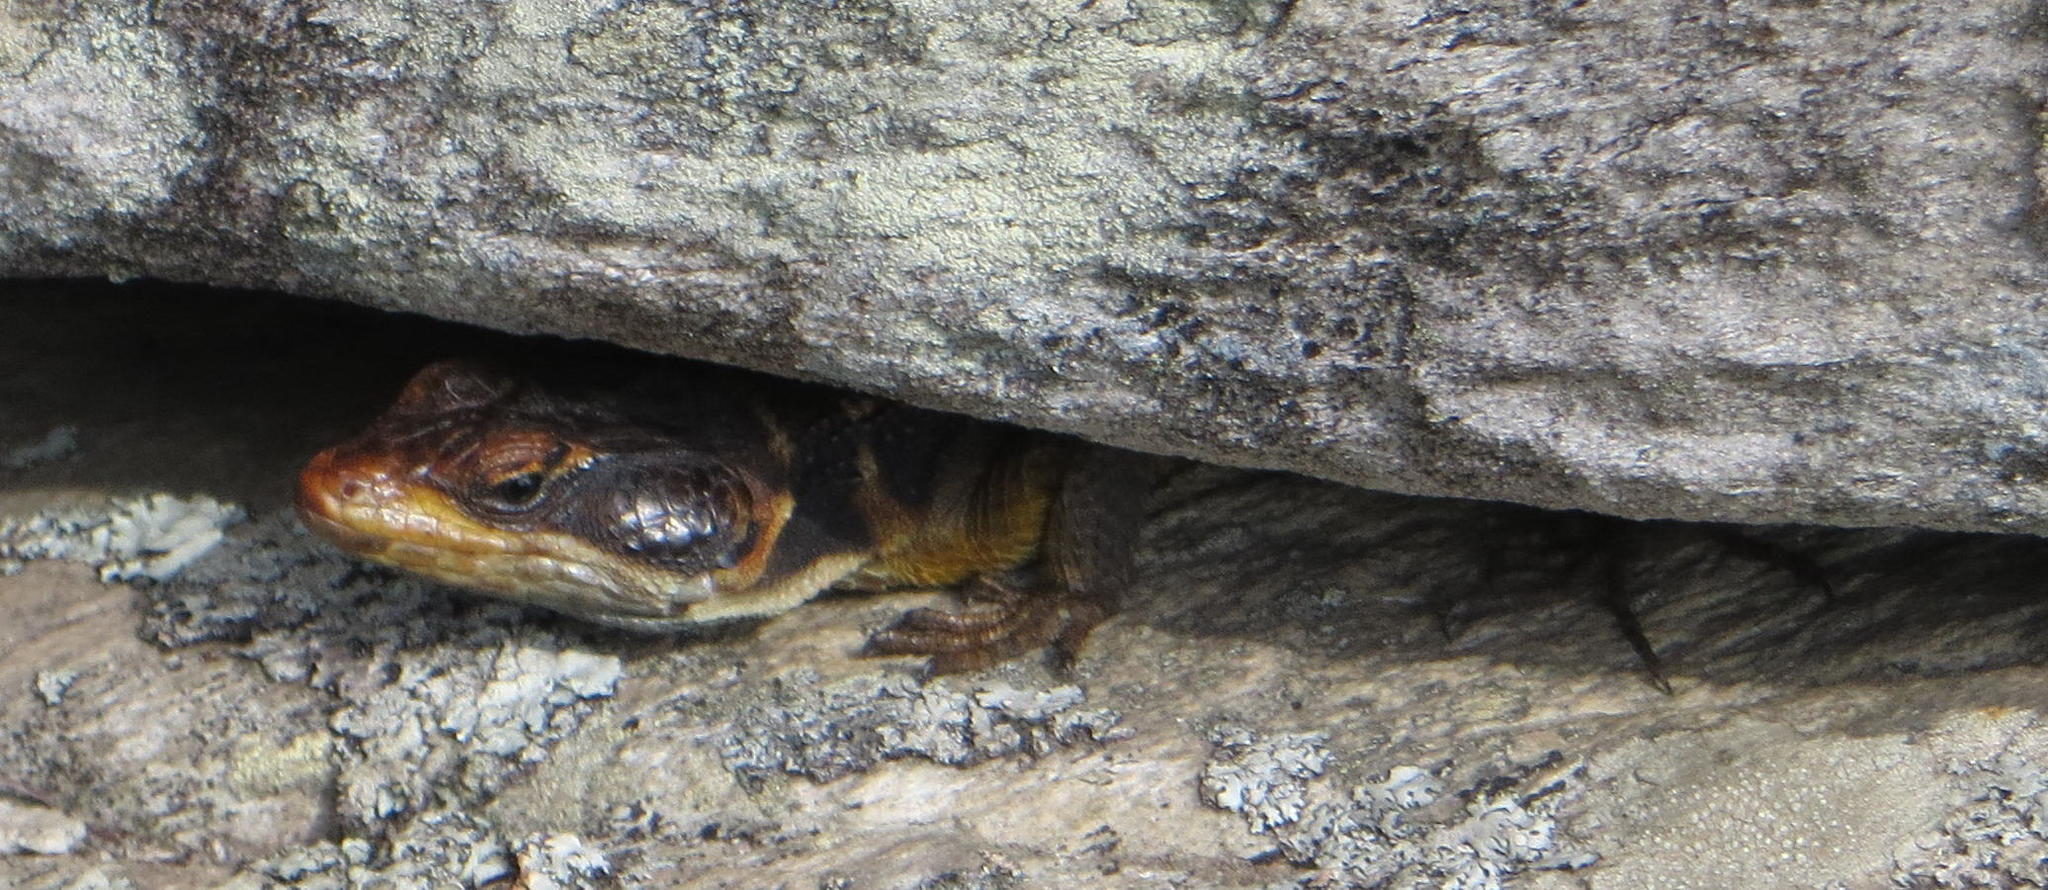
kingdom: Animalia
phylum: Chordata
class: Squamata
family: Cordylidae
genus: Pseudocordylus
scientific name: Pseudocordylus microlepidotus
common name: Cape crag lizard
